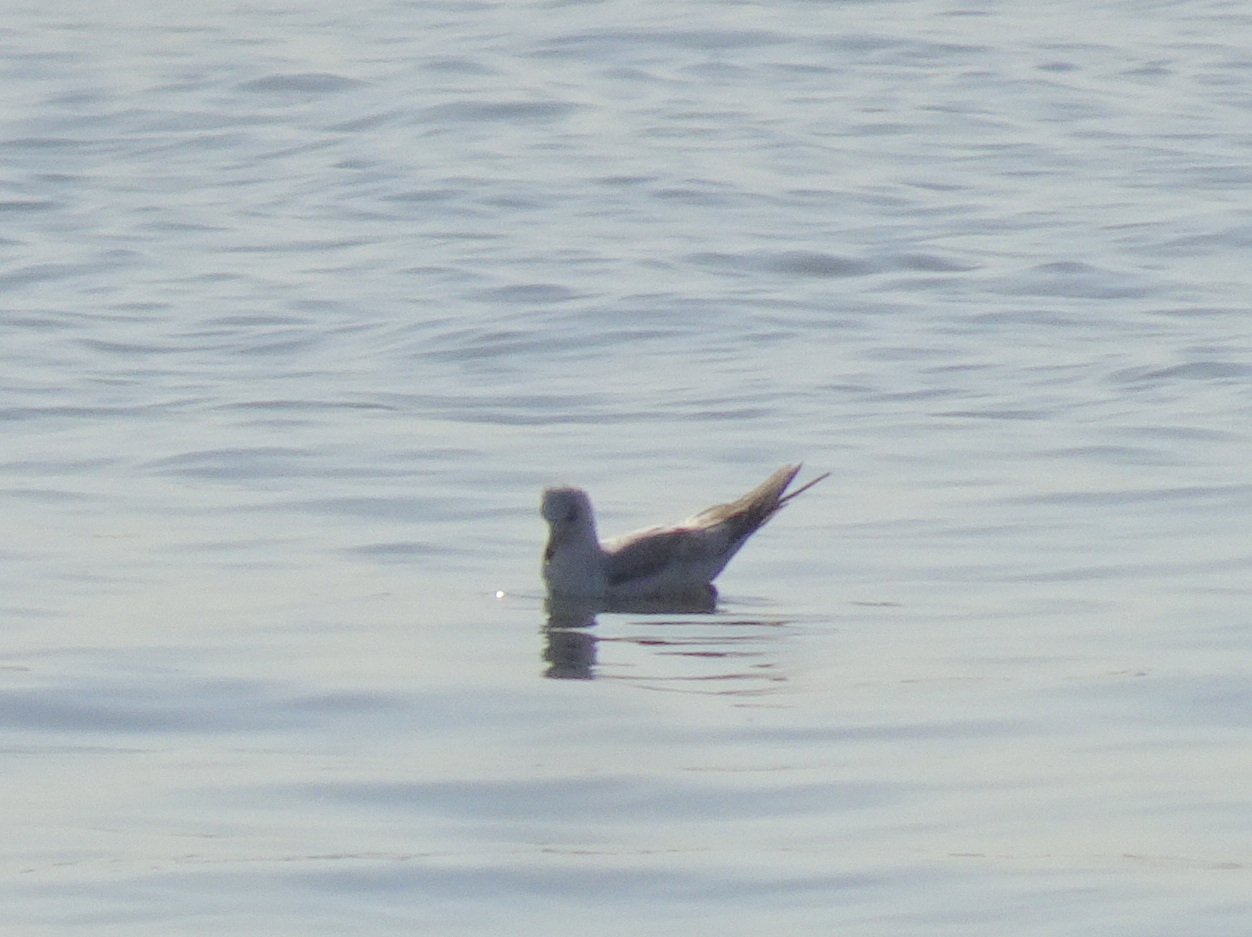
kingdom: Animalia
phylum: Chordata
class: Aves
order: Charadriiformes
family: Laridae
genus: Larus
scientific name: Larus delawarensis
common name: Ring-billed gull
